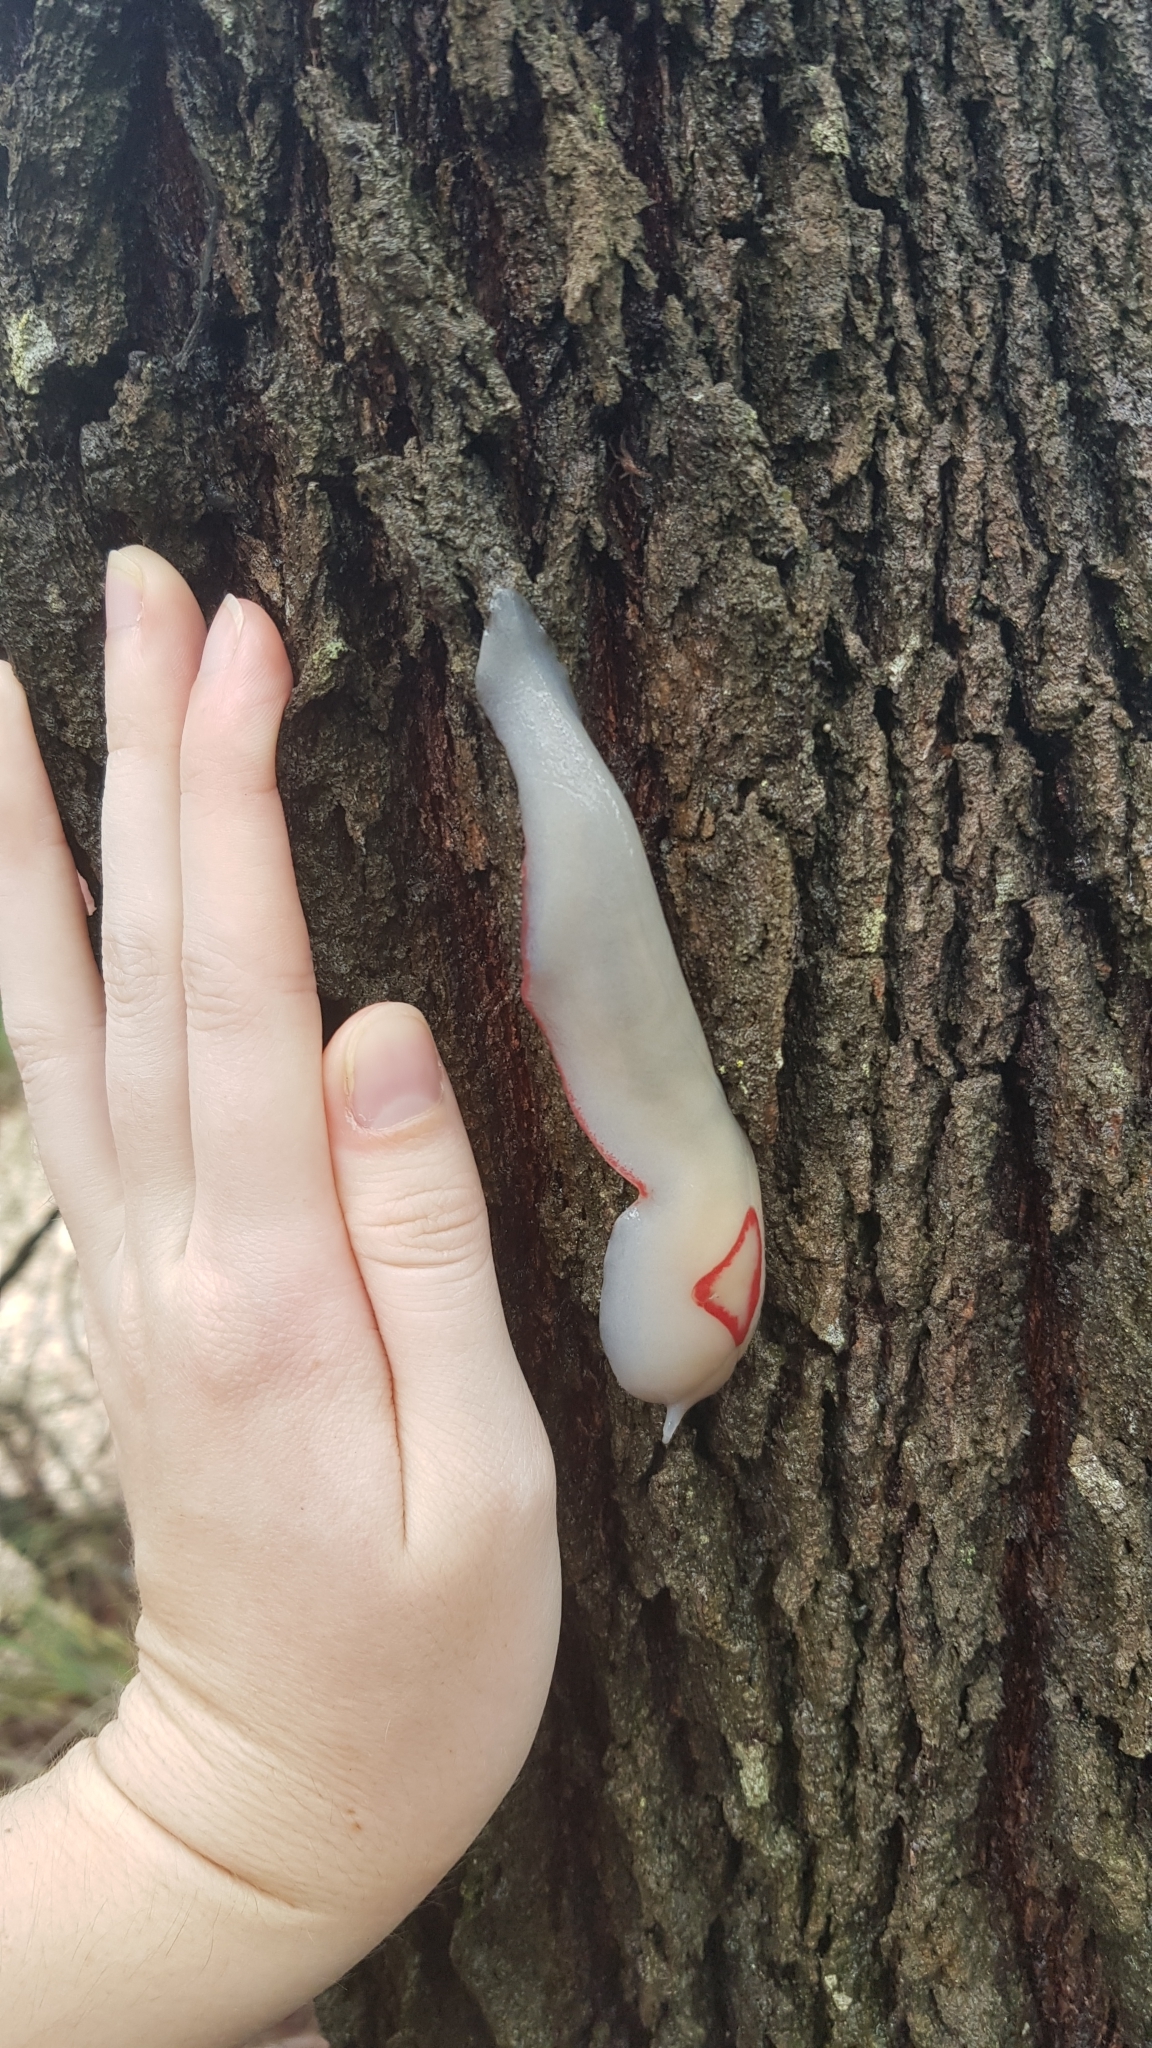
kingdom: Animalia
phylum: Mollusca
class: Gastropoda
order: Stylommatophora
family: Athoracophoridae
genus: Triboniophorus
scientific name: Triboniophorus graeffei
